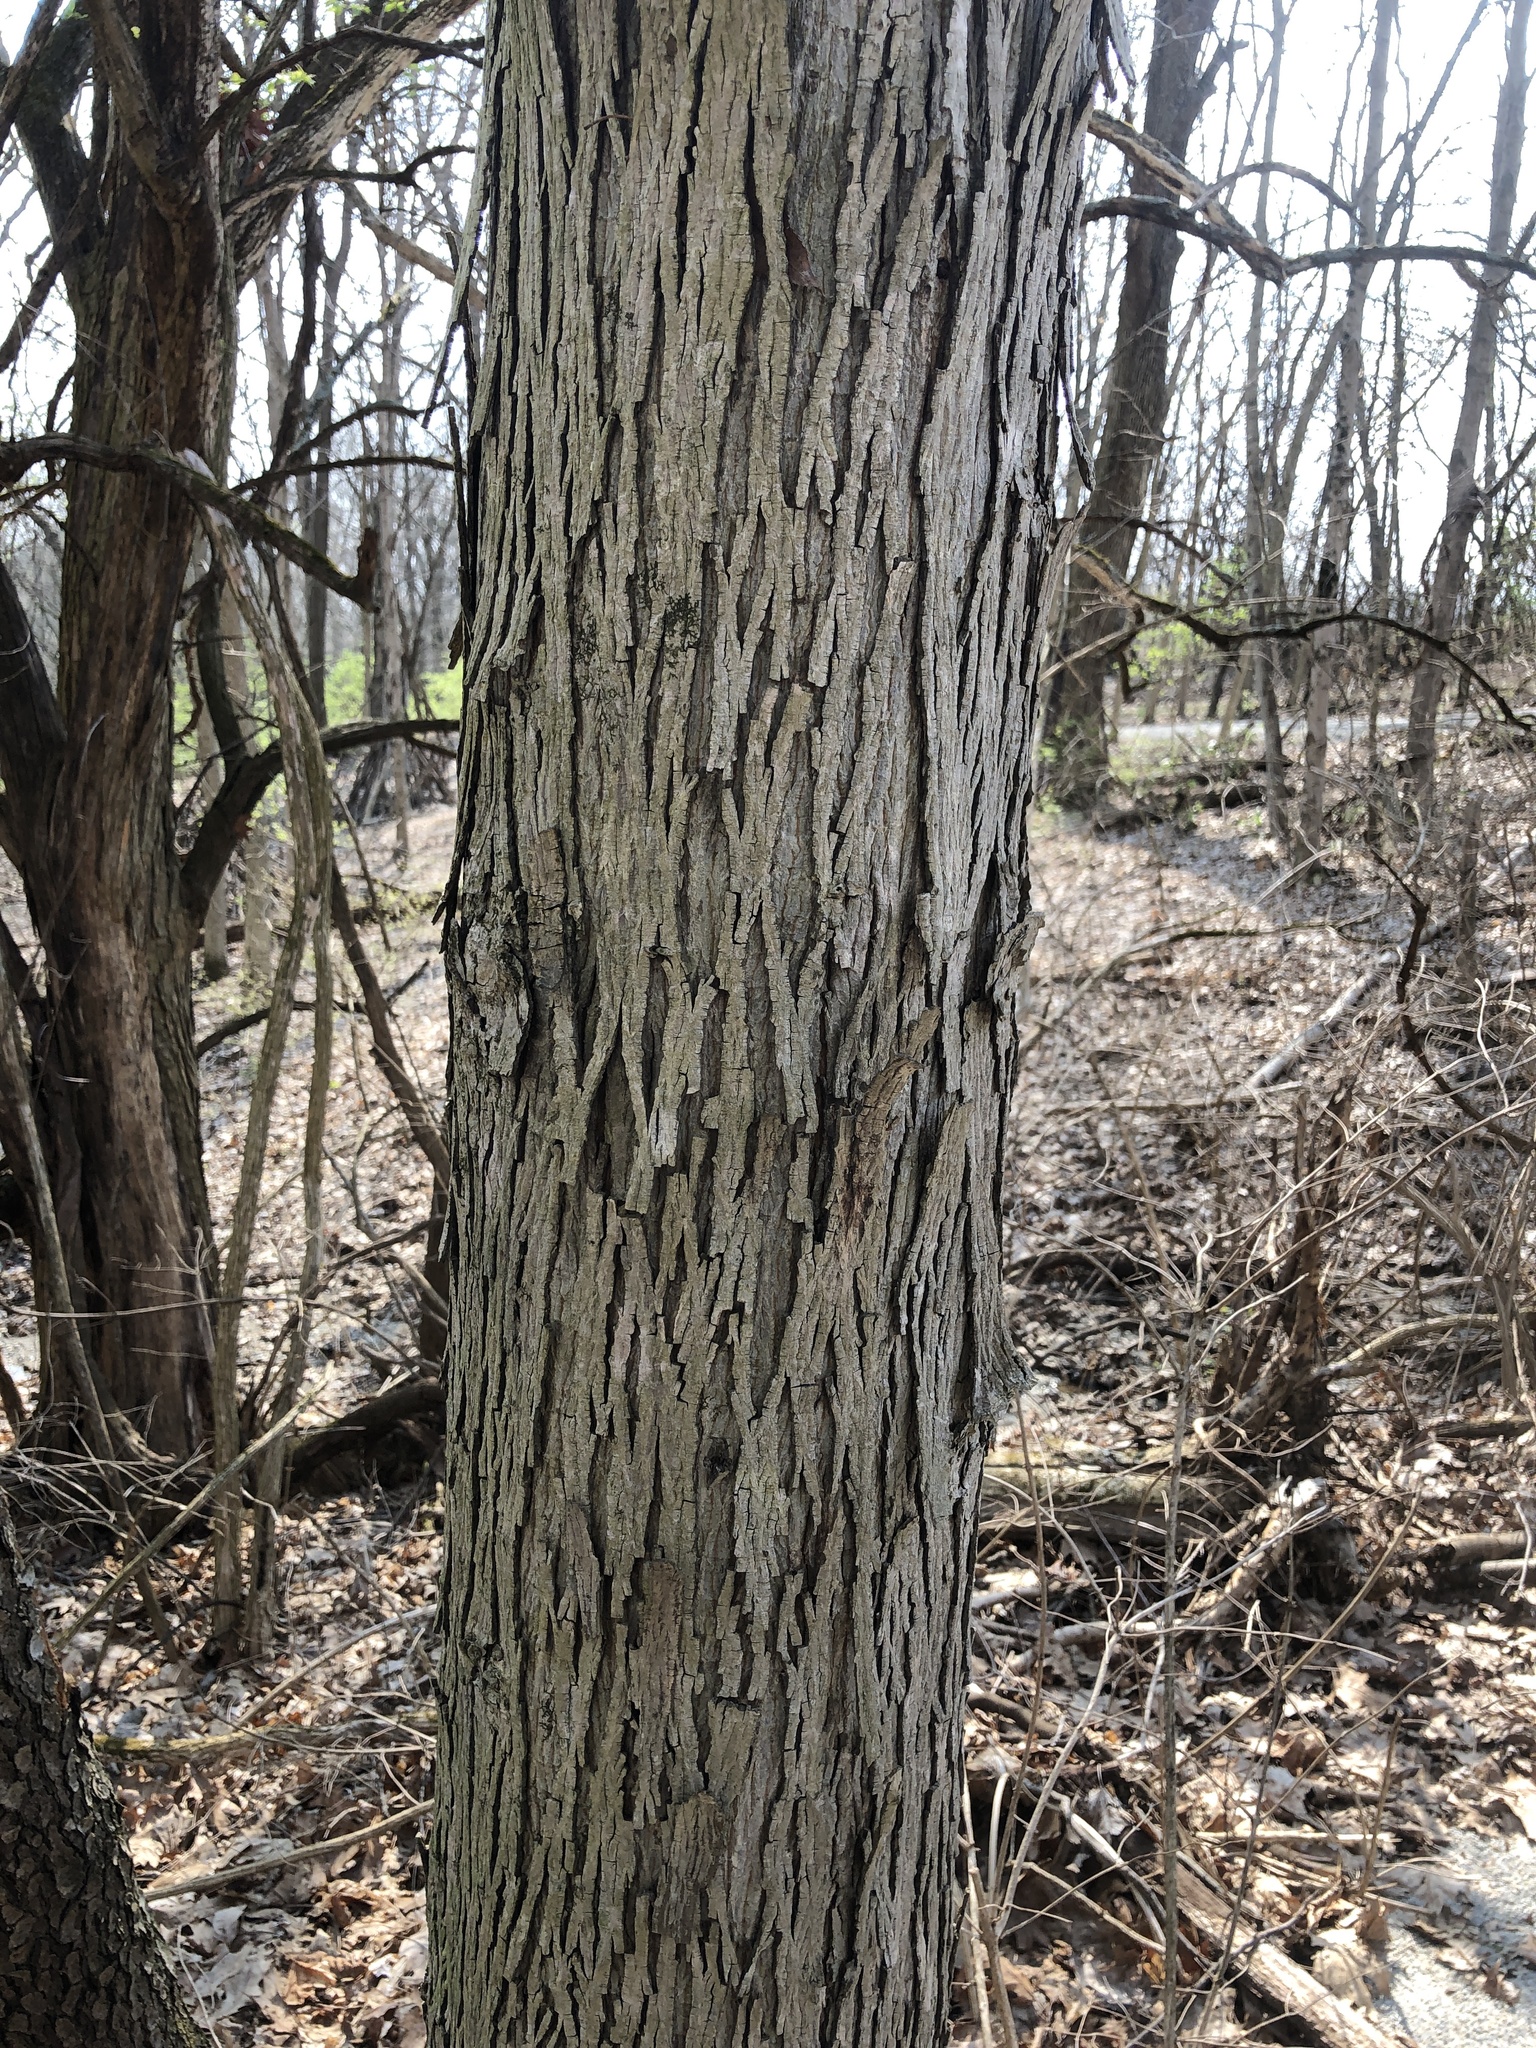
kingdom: Plantae
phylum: Tracheophyta
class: Magnoliopsida
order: Fagales
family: Juglandaceae
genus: Carya
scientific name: Carya ovata
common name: Shagbark hickory
